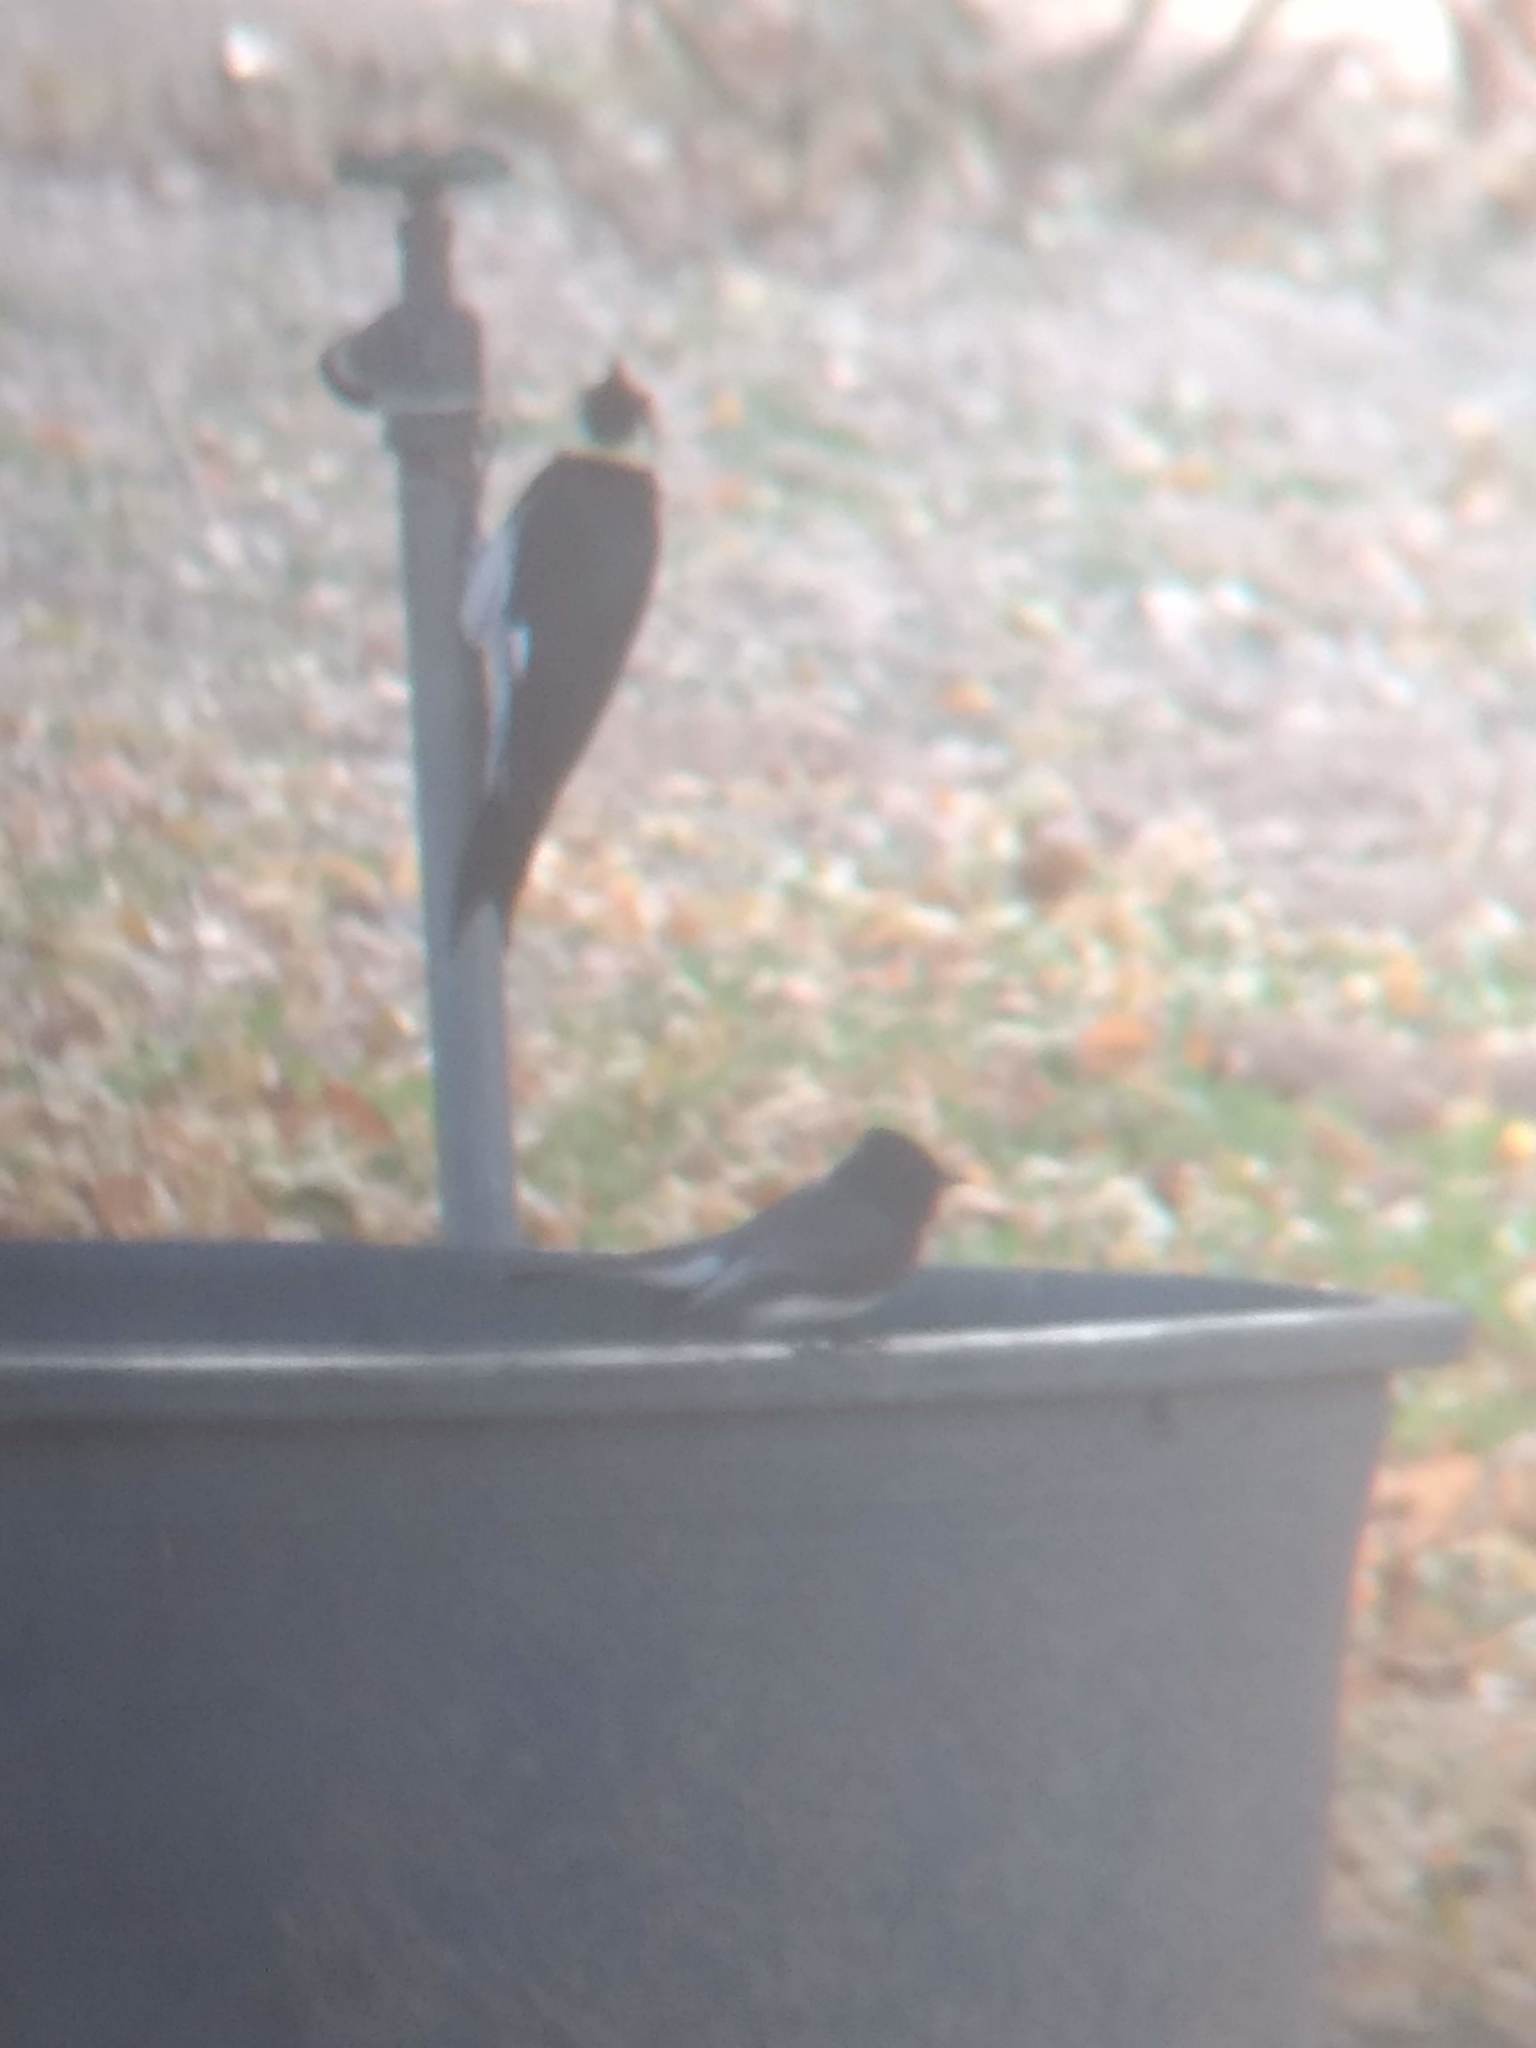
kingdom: Animalia
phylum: Chordata
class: Aves
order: Passeriformes
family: Tyrannidae
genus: Sayornis
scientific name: Sayornis nigricans
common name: Black phoebe
